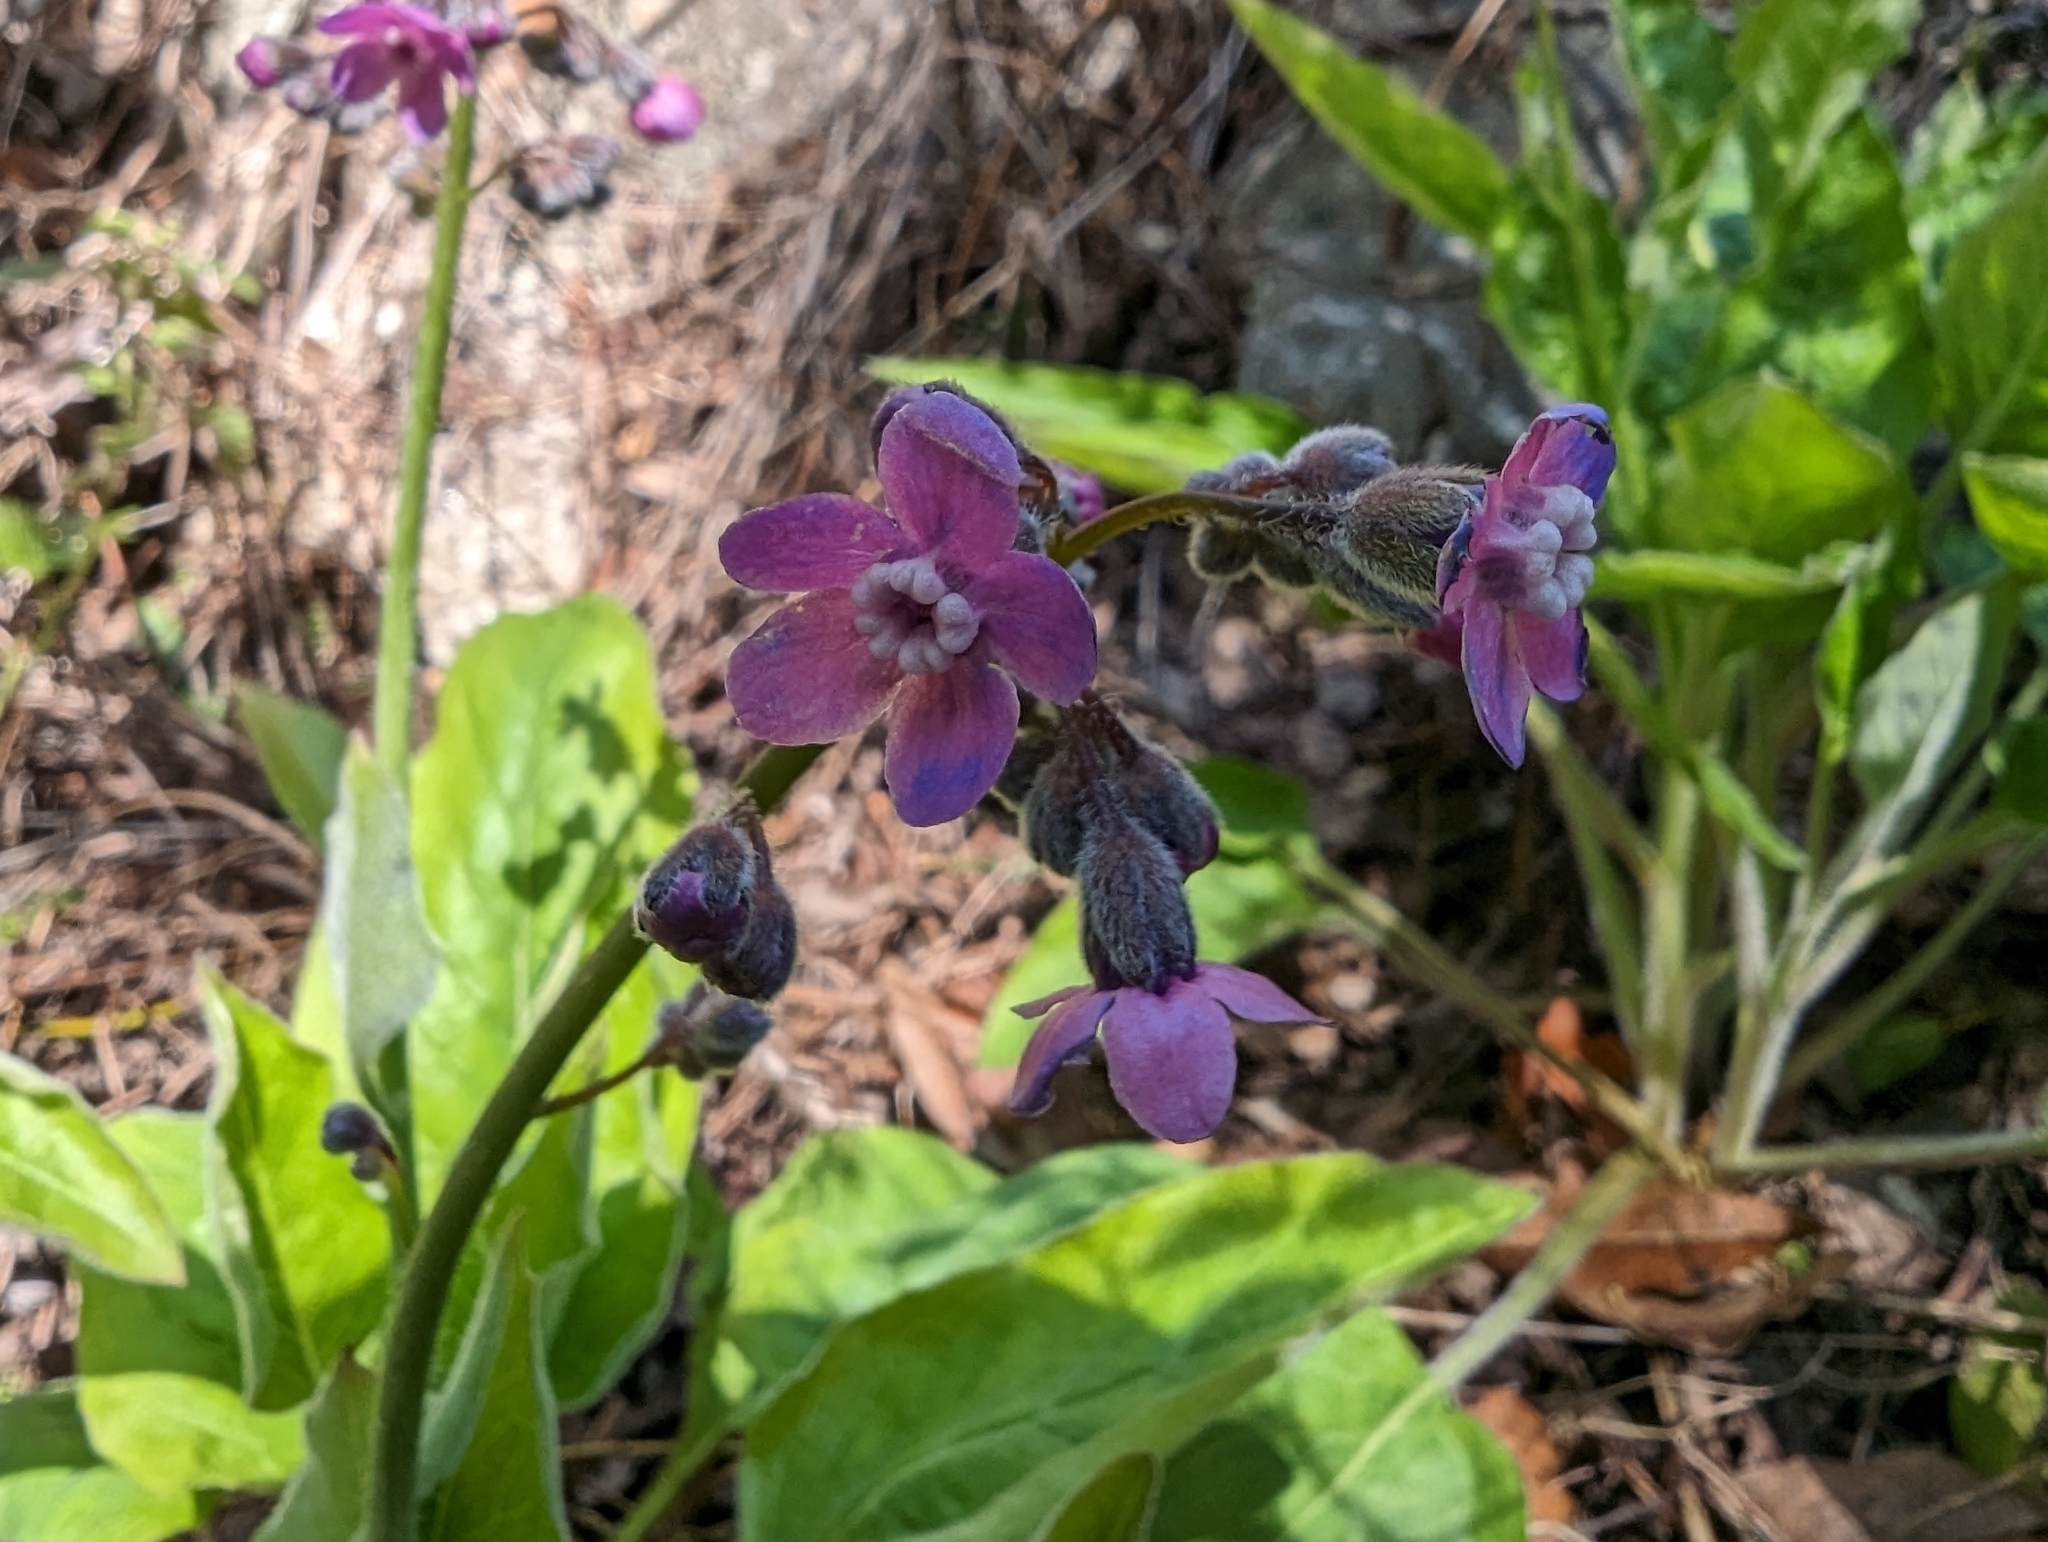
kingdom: Plantae
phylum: Tracheophyta
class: Magnoliopsida
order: Boraginales
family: Boraginaceae
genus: Adelinia
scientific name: Adelinia grande
